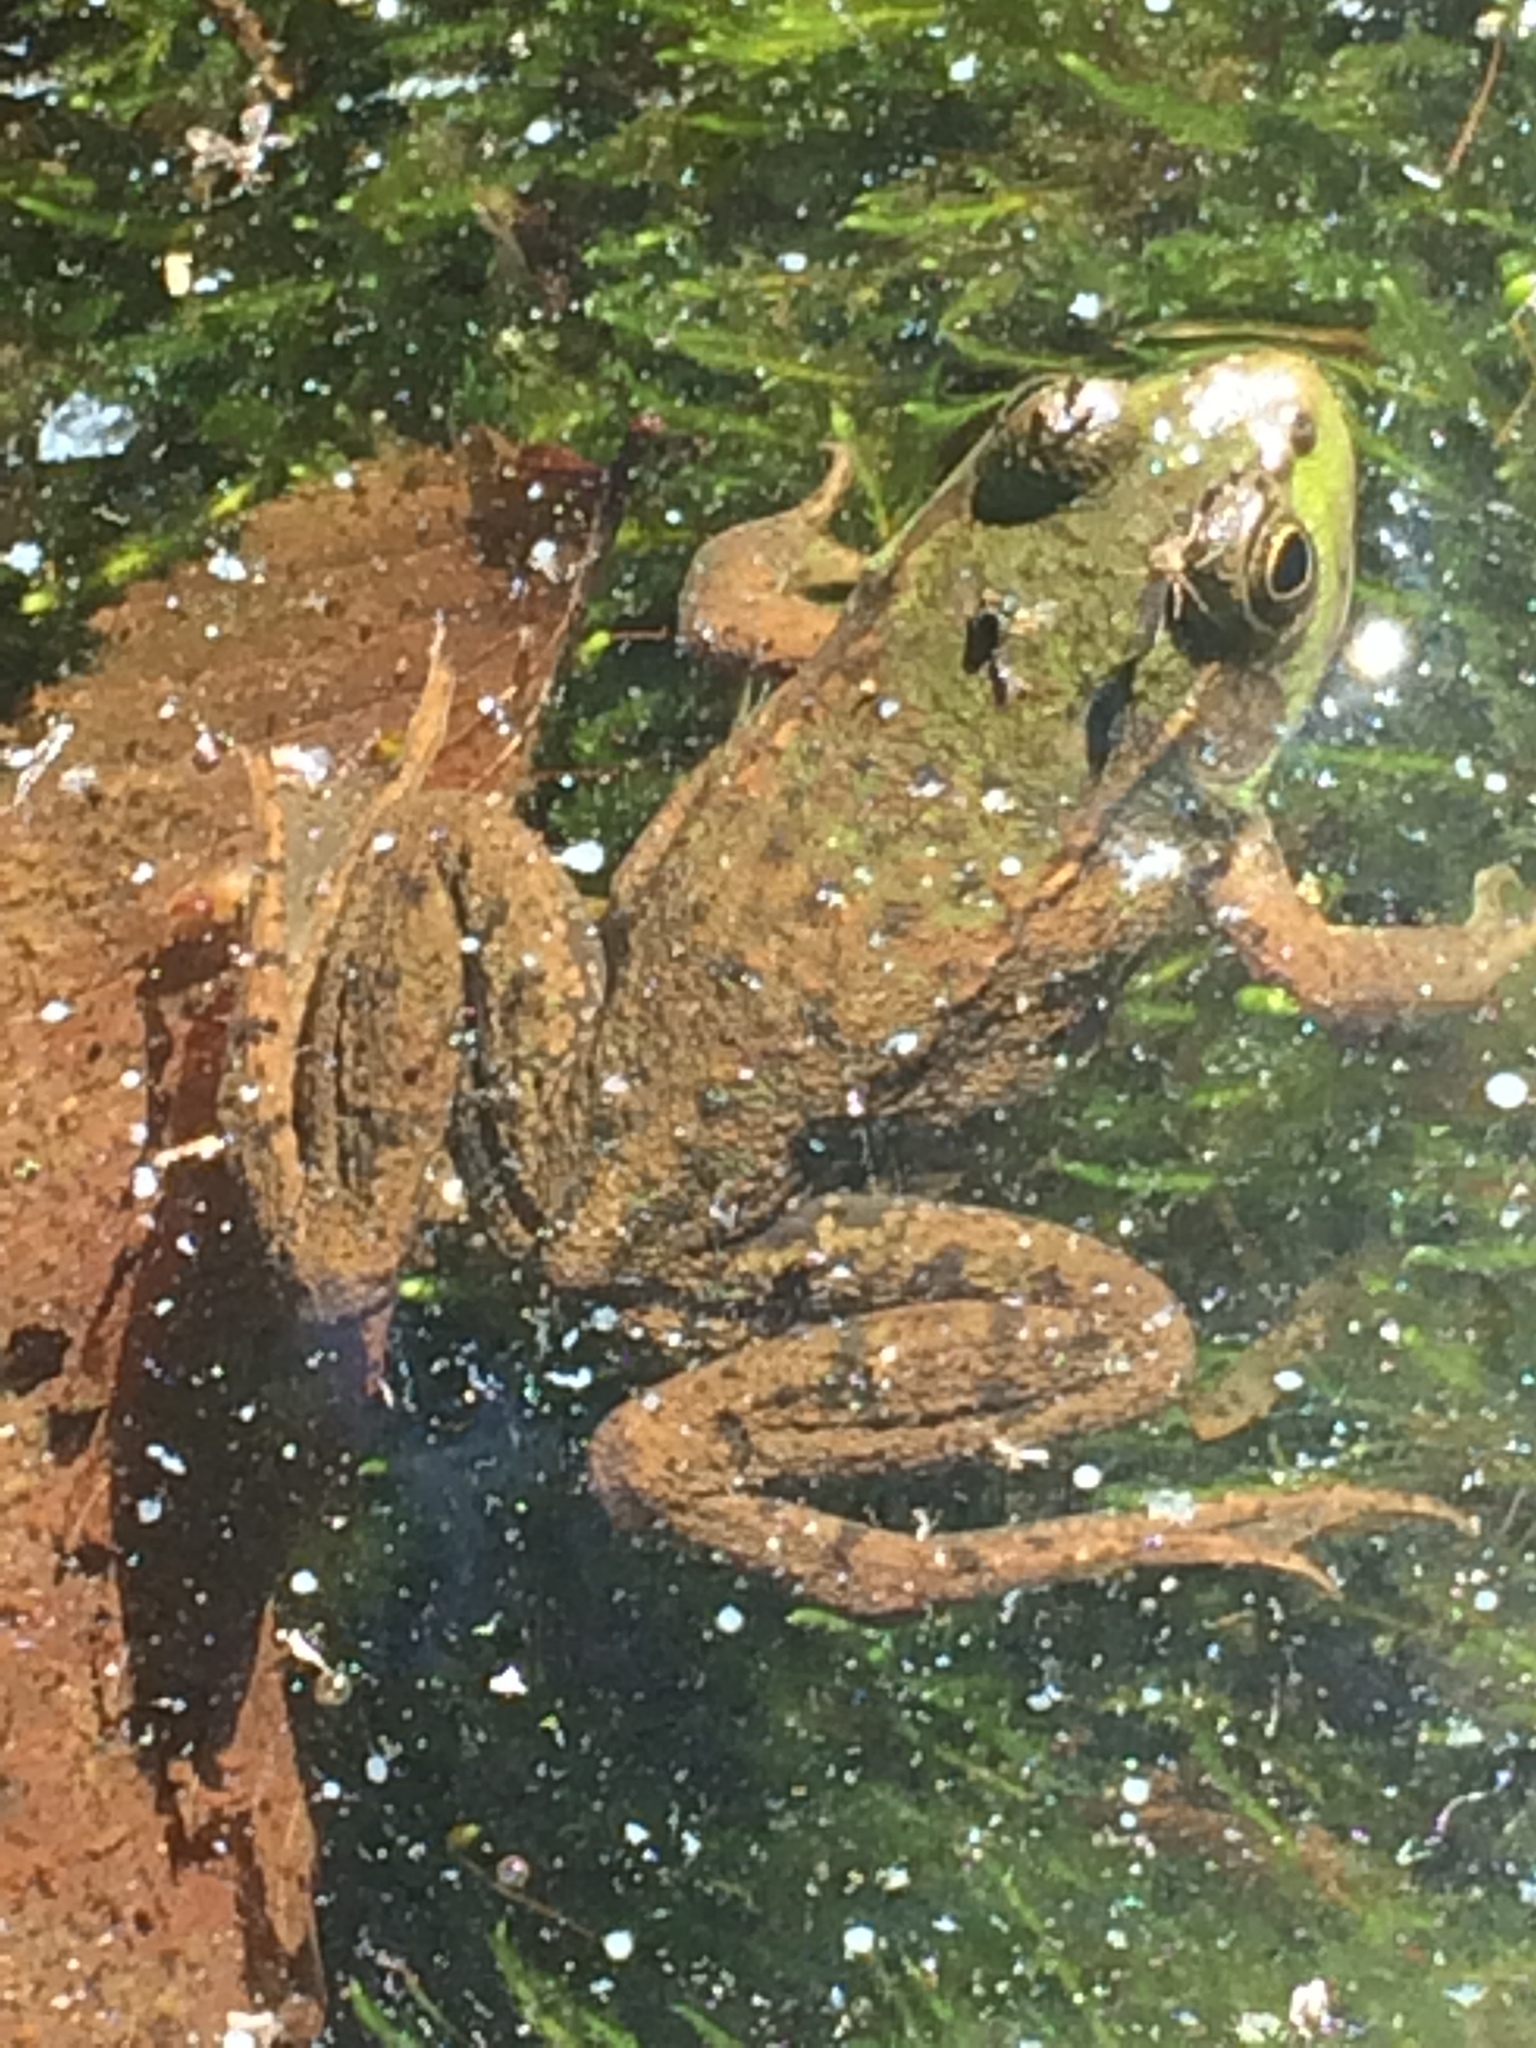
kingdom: Animalia
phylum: Chordata
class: Amphibia
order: Anura
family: Ranidae
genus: Lithobates
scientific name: Lithobates clamitans
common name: Green frog
